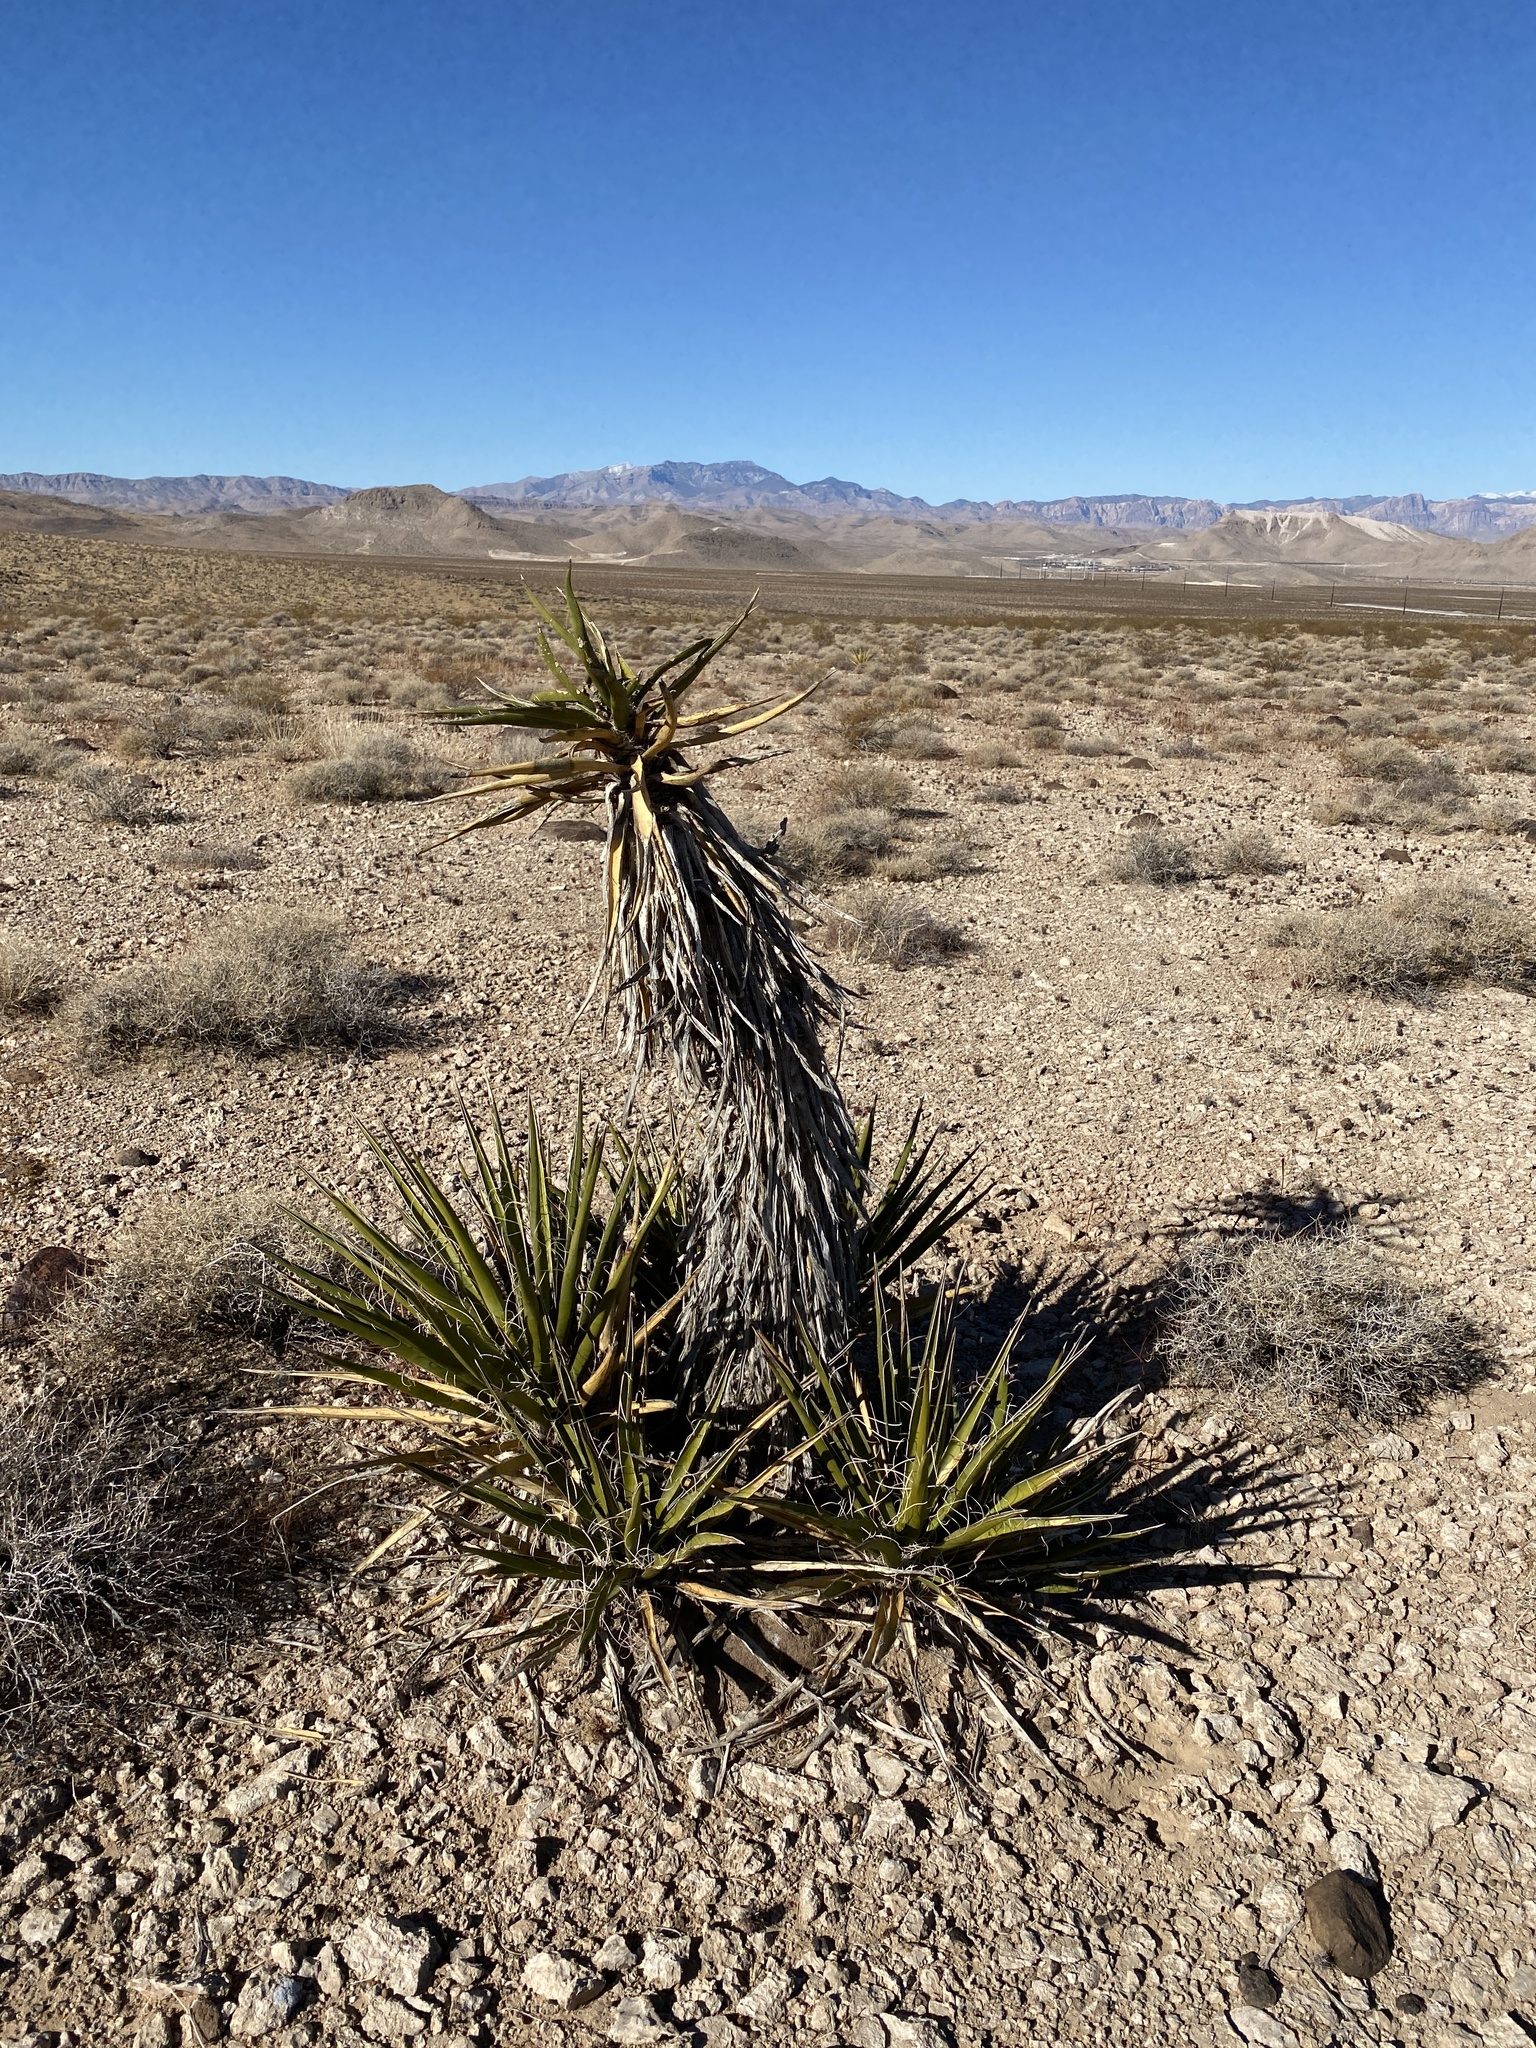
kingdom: Plantae
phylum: Tracheophyta
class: Liliopsida
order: Asparagales
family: Asparagaceae
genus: Yucca
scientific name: Yucca schidigera
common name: Mojave yucca
